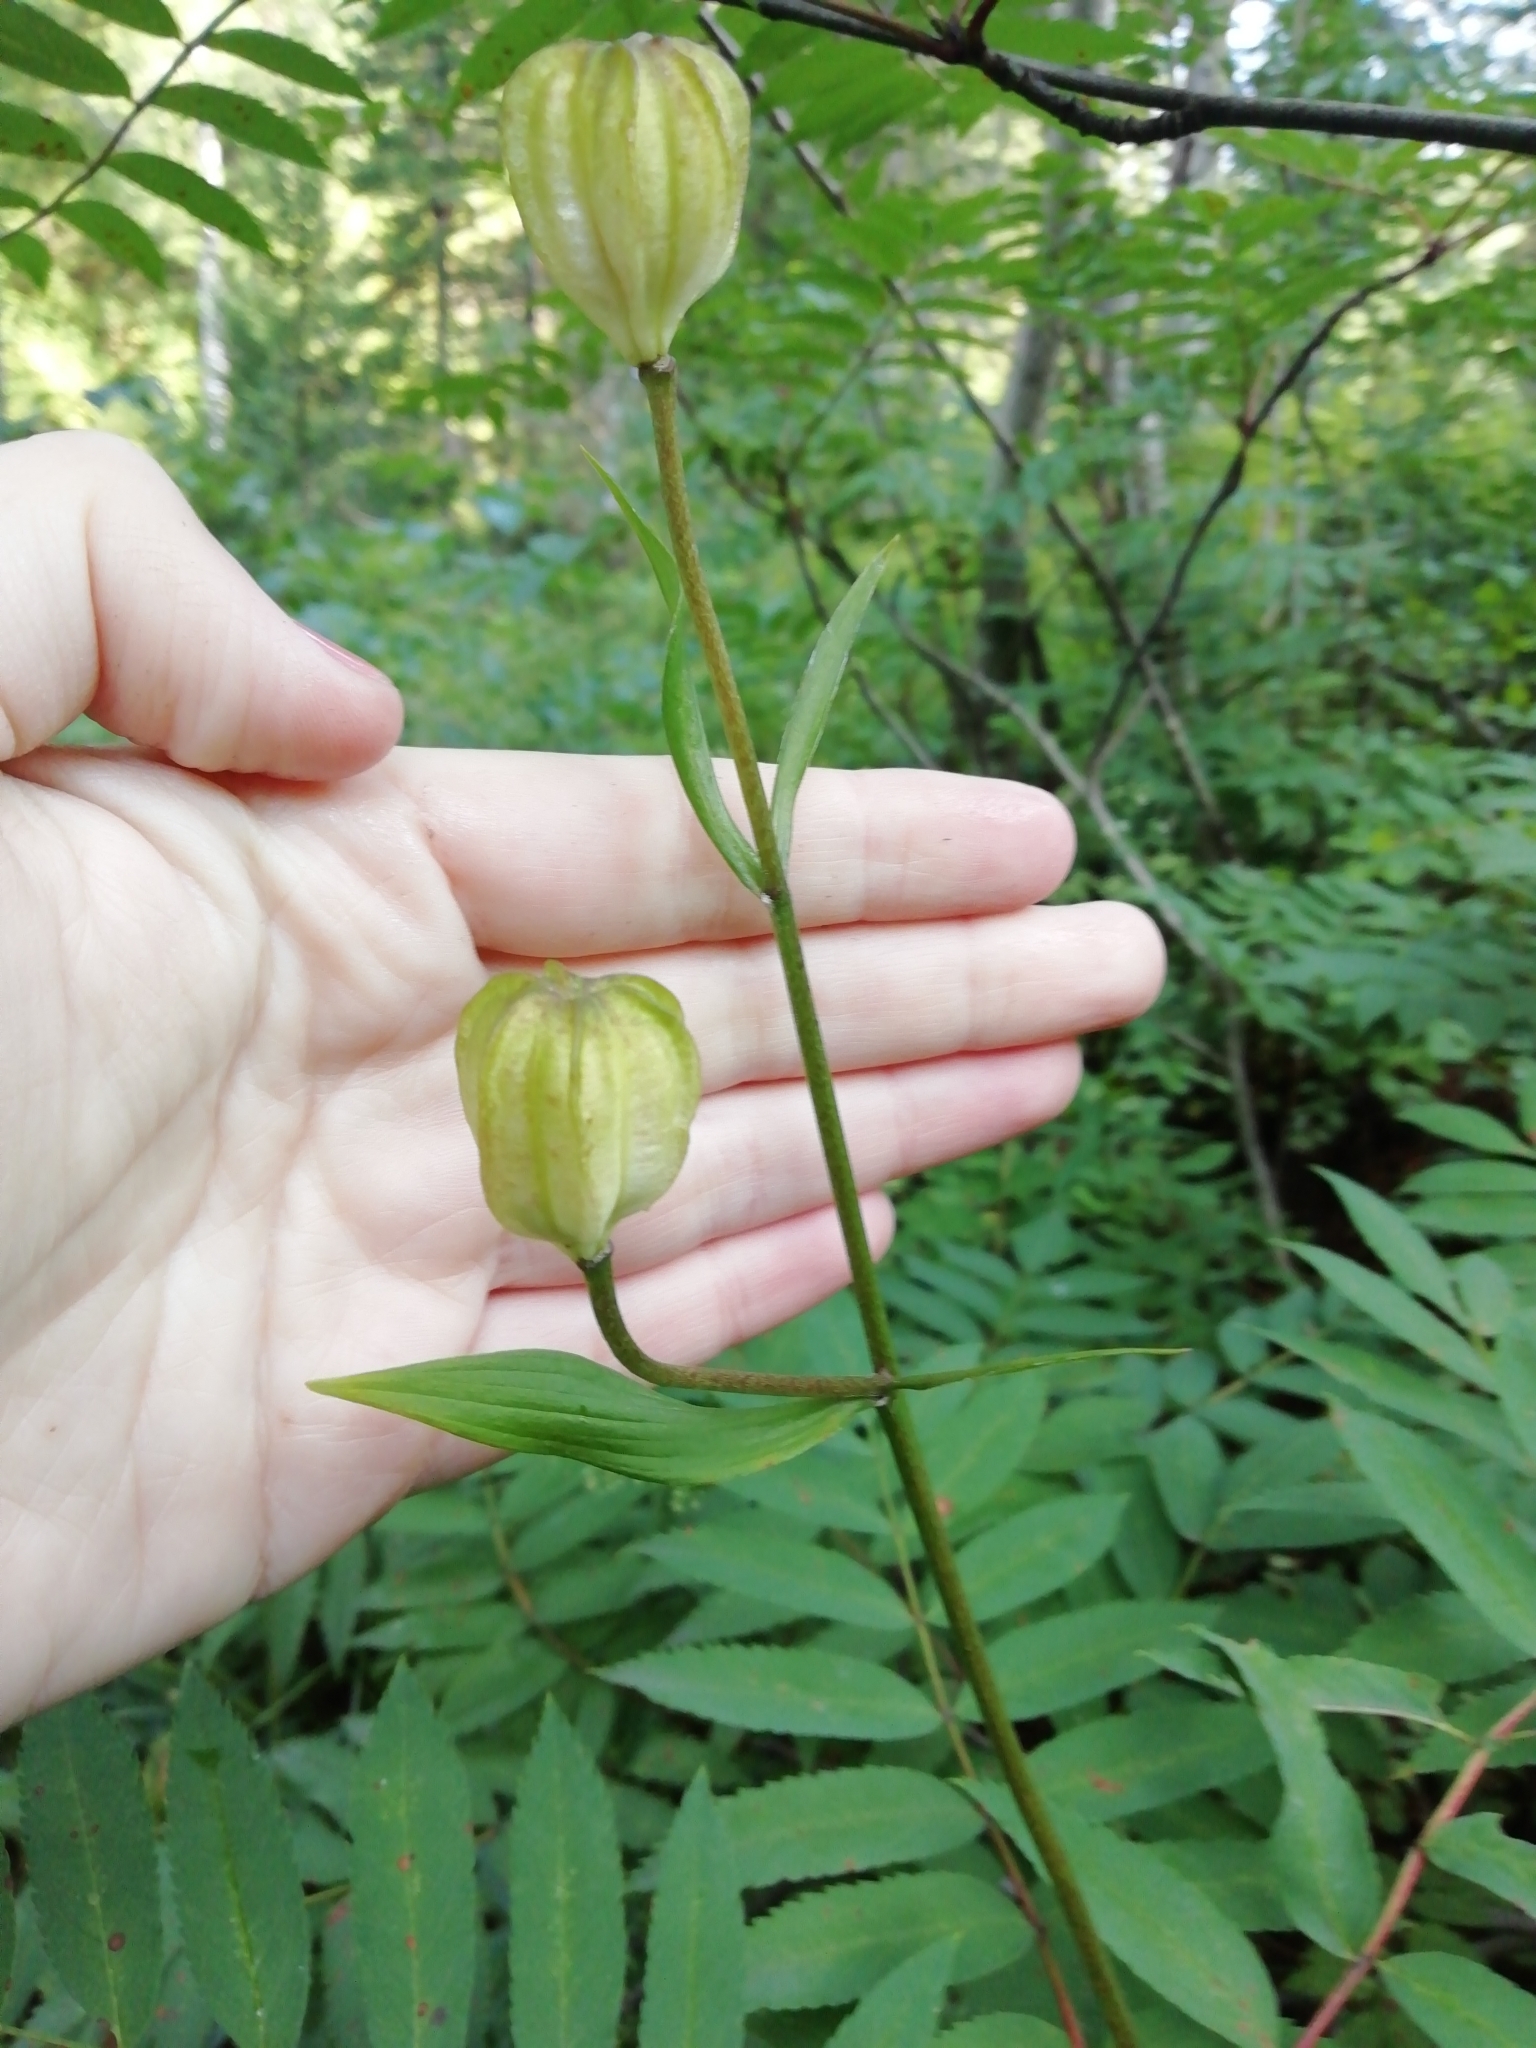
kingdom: Plantae
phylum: Tracheophyta
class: Liliopsida
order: Liliales
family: Liliaceae
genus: Lilium
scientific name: Lilium martagon
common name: Martagon lily
